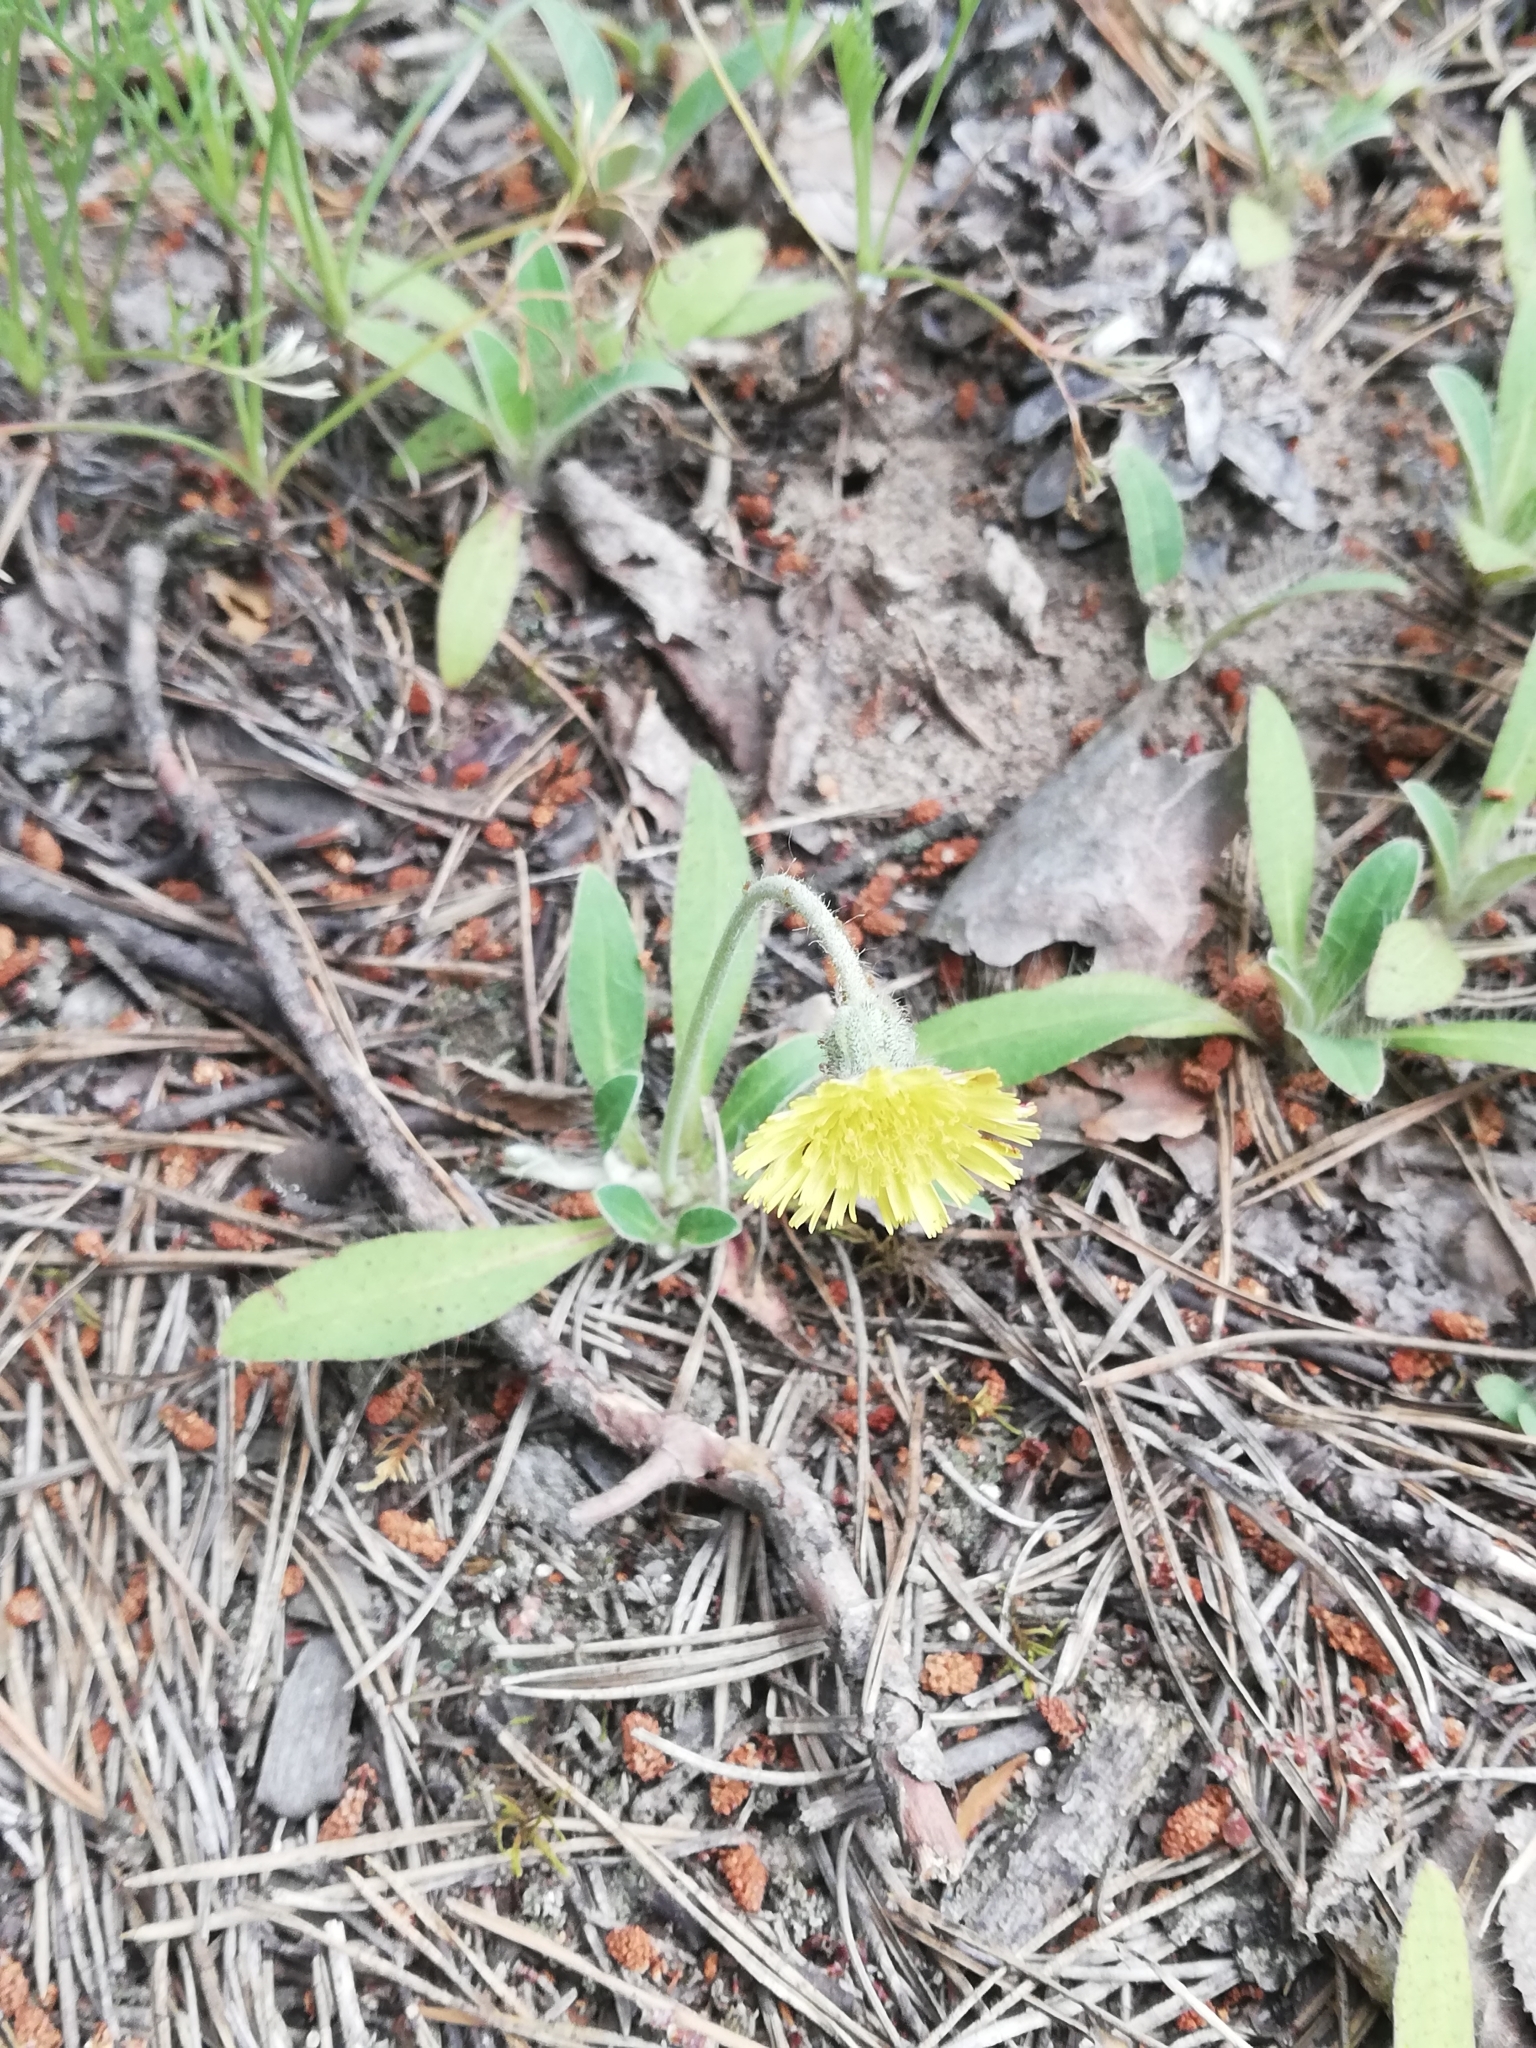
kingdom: Plantae
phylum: Tracheophyta
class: Magnoliopsida
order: Asterales
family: Asteraceae
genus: Pilosella
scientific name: Pilosella officinarum
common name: Mouse-ear hawkweed
